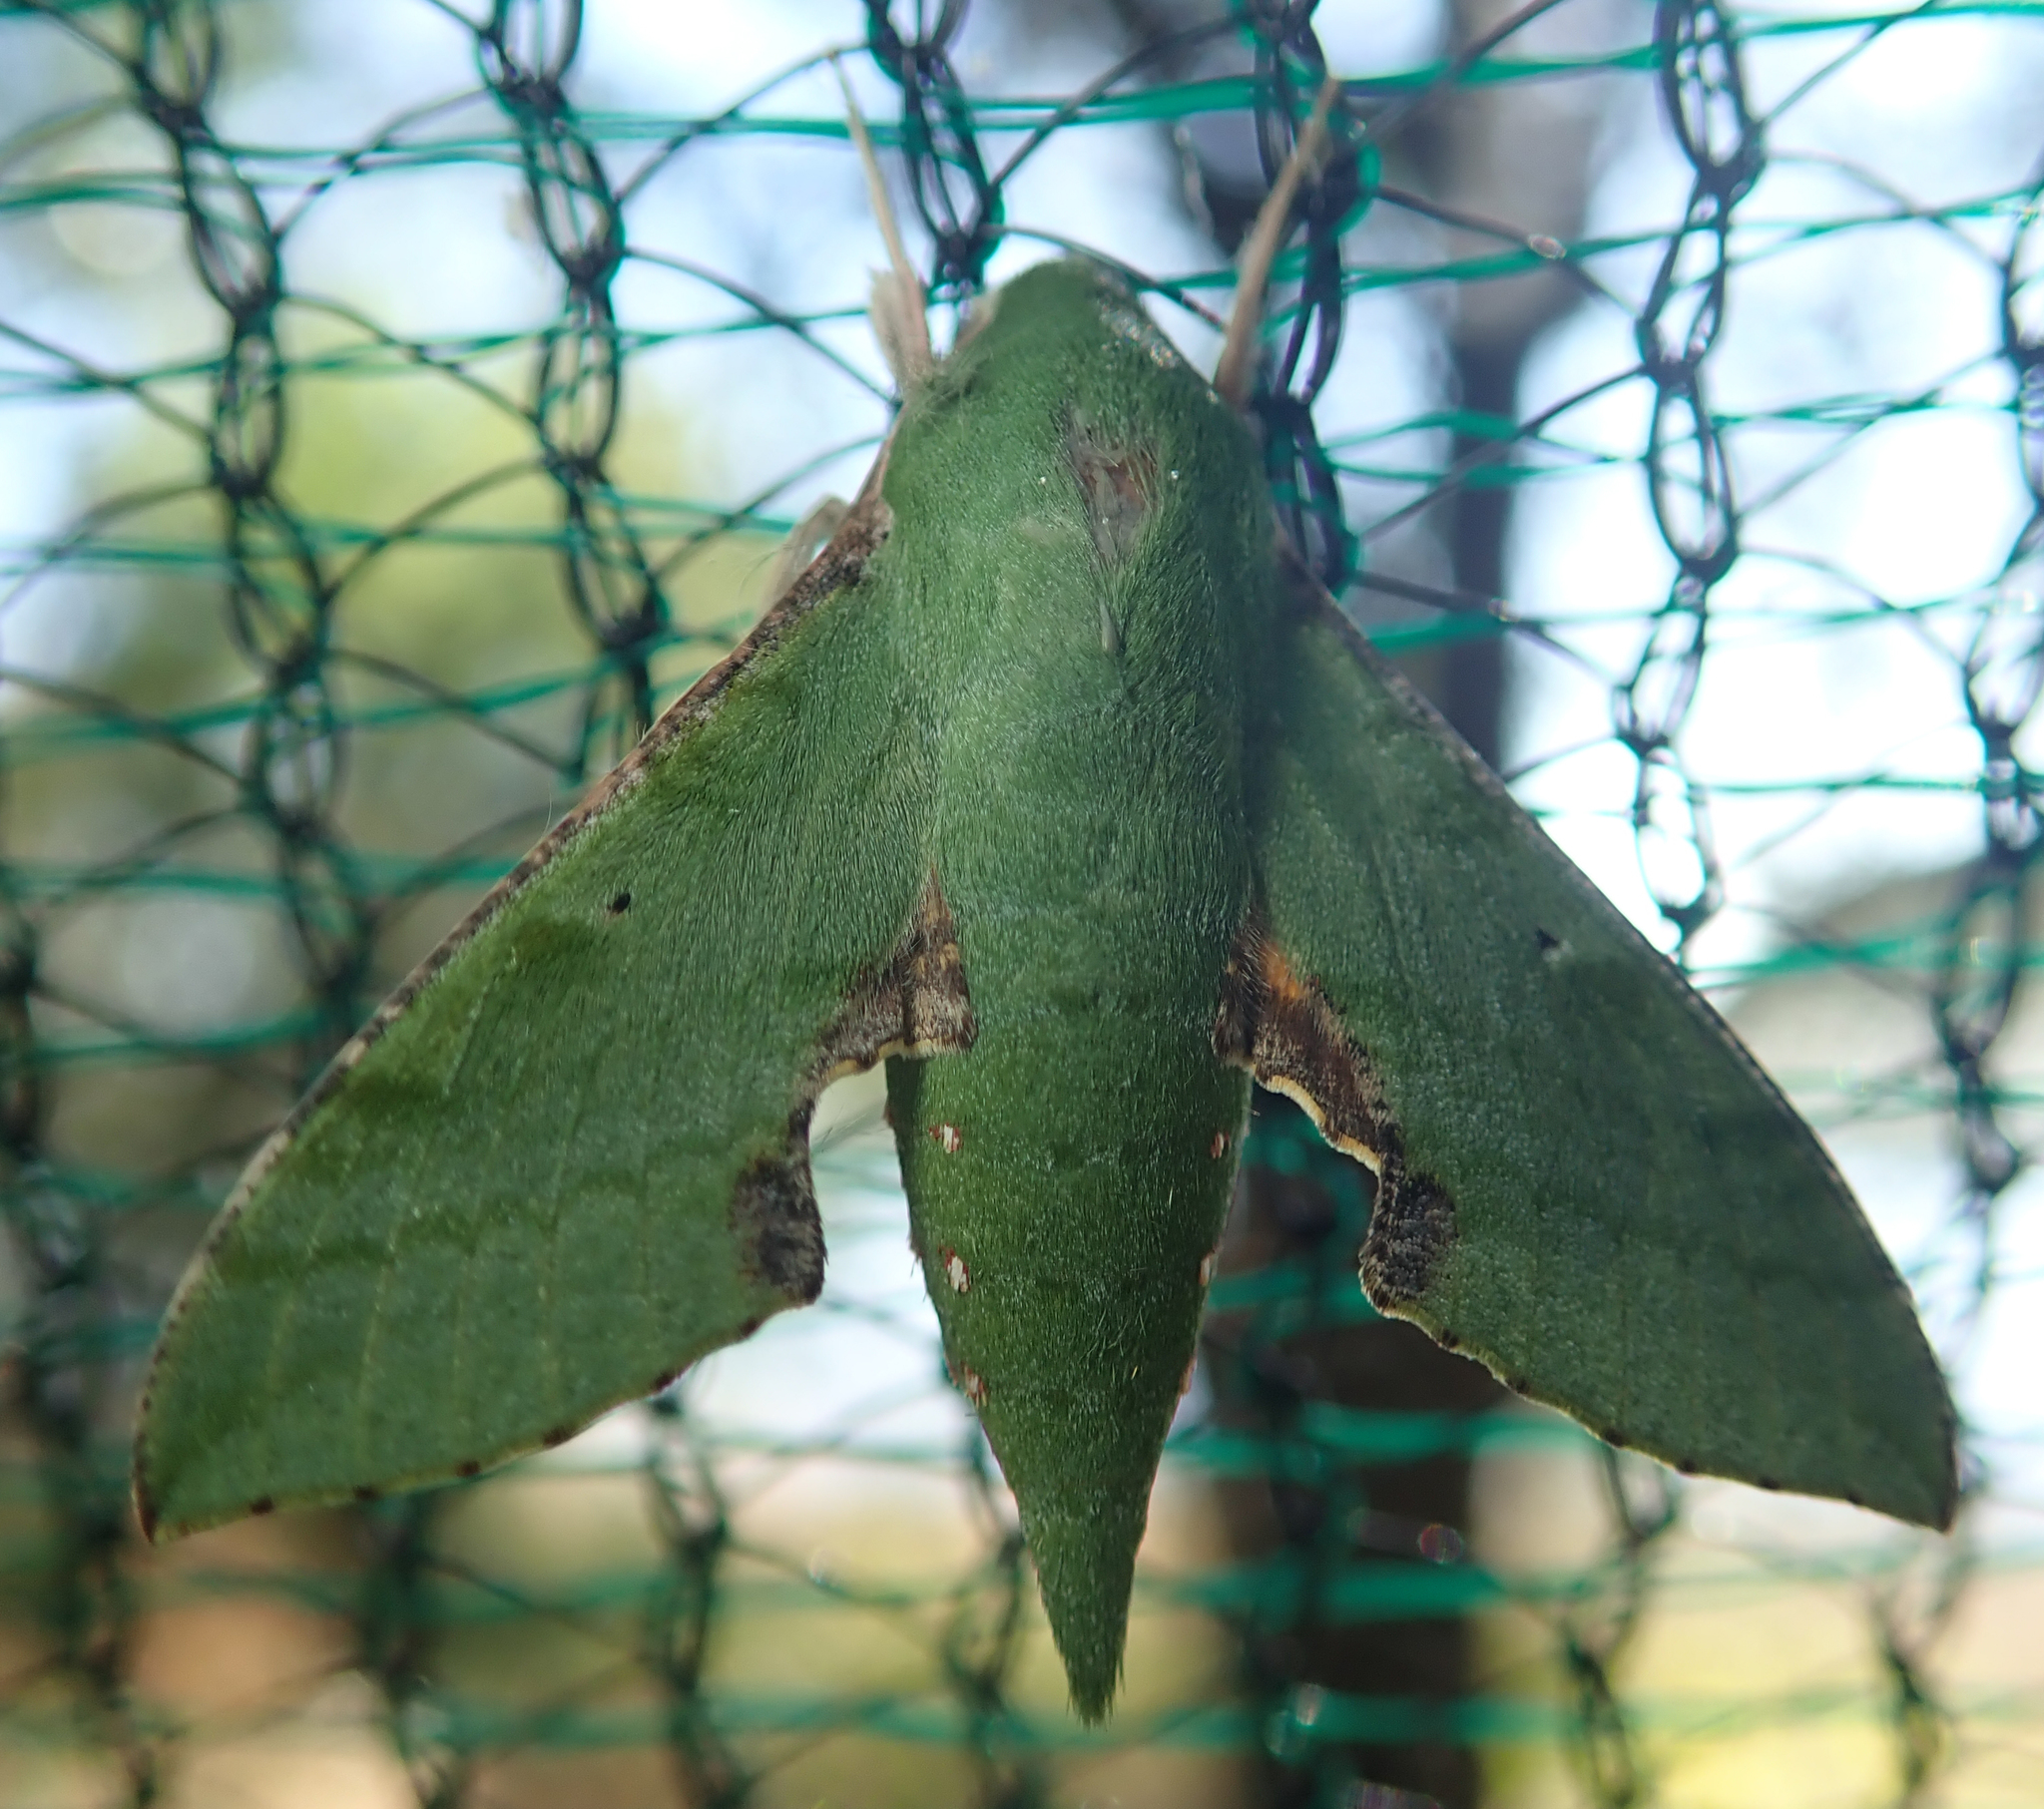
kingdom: Animalia
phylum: Arthropoda
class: Insecta
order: Lepidoptera
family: Sphingidae
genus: Basiothia
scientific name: Basiothia medea
